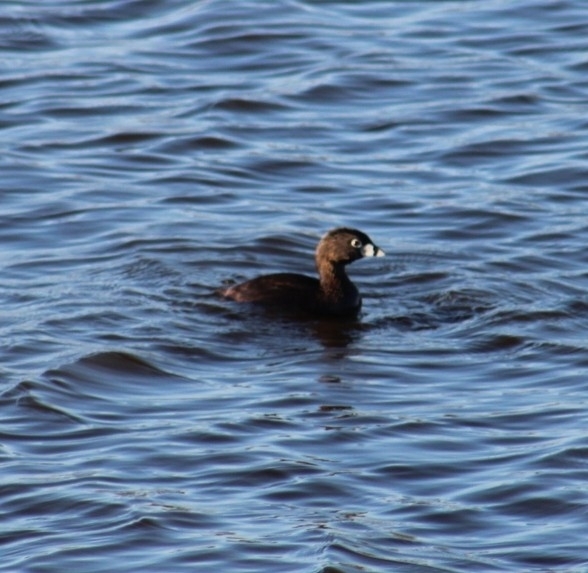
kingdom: Animalia
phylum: Chordata
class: Aves
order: Podicipediformes
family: Podicipedidae
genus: Podilymbus
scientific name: Podilymbus podiceps
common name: Pied-billed grebe
